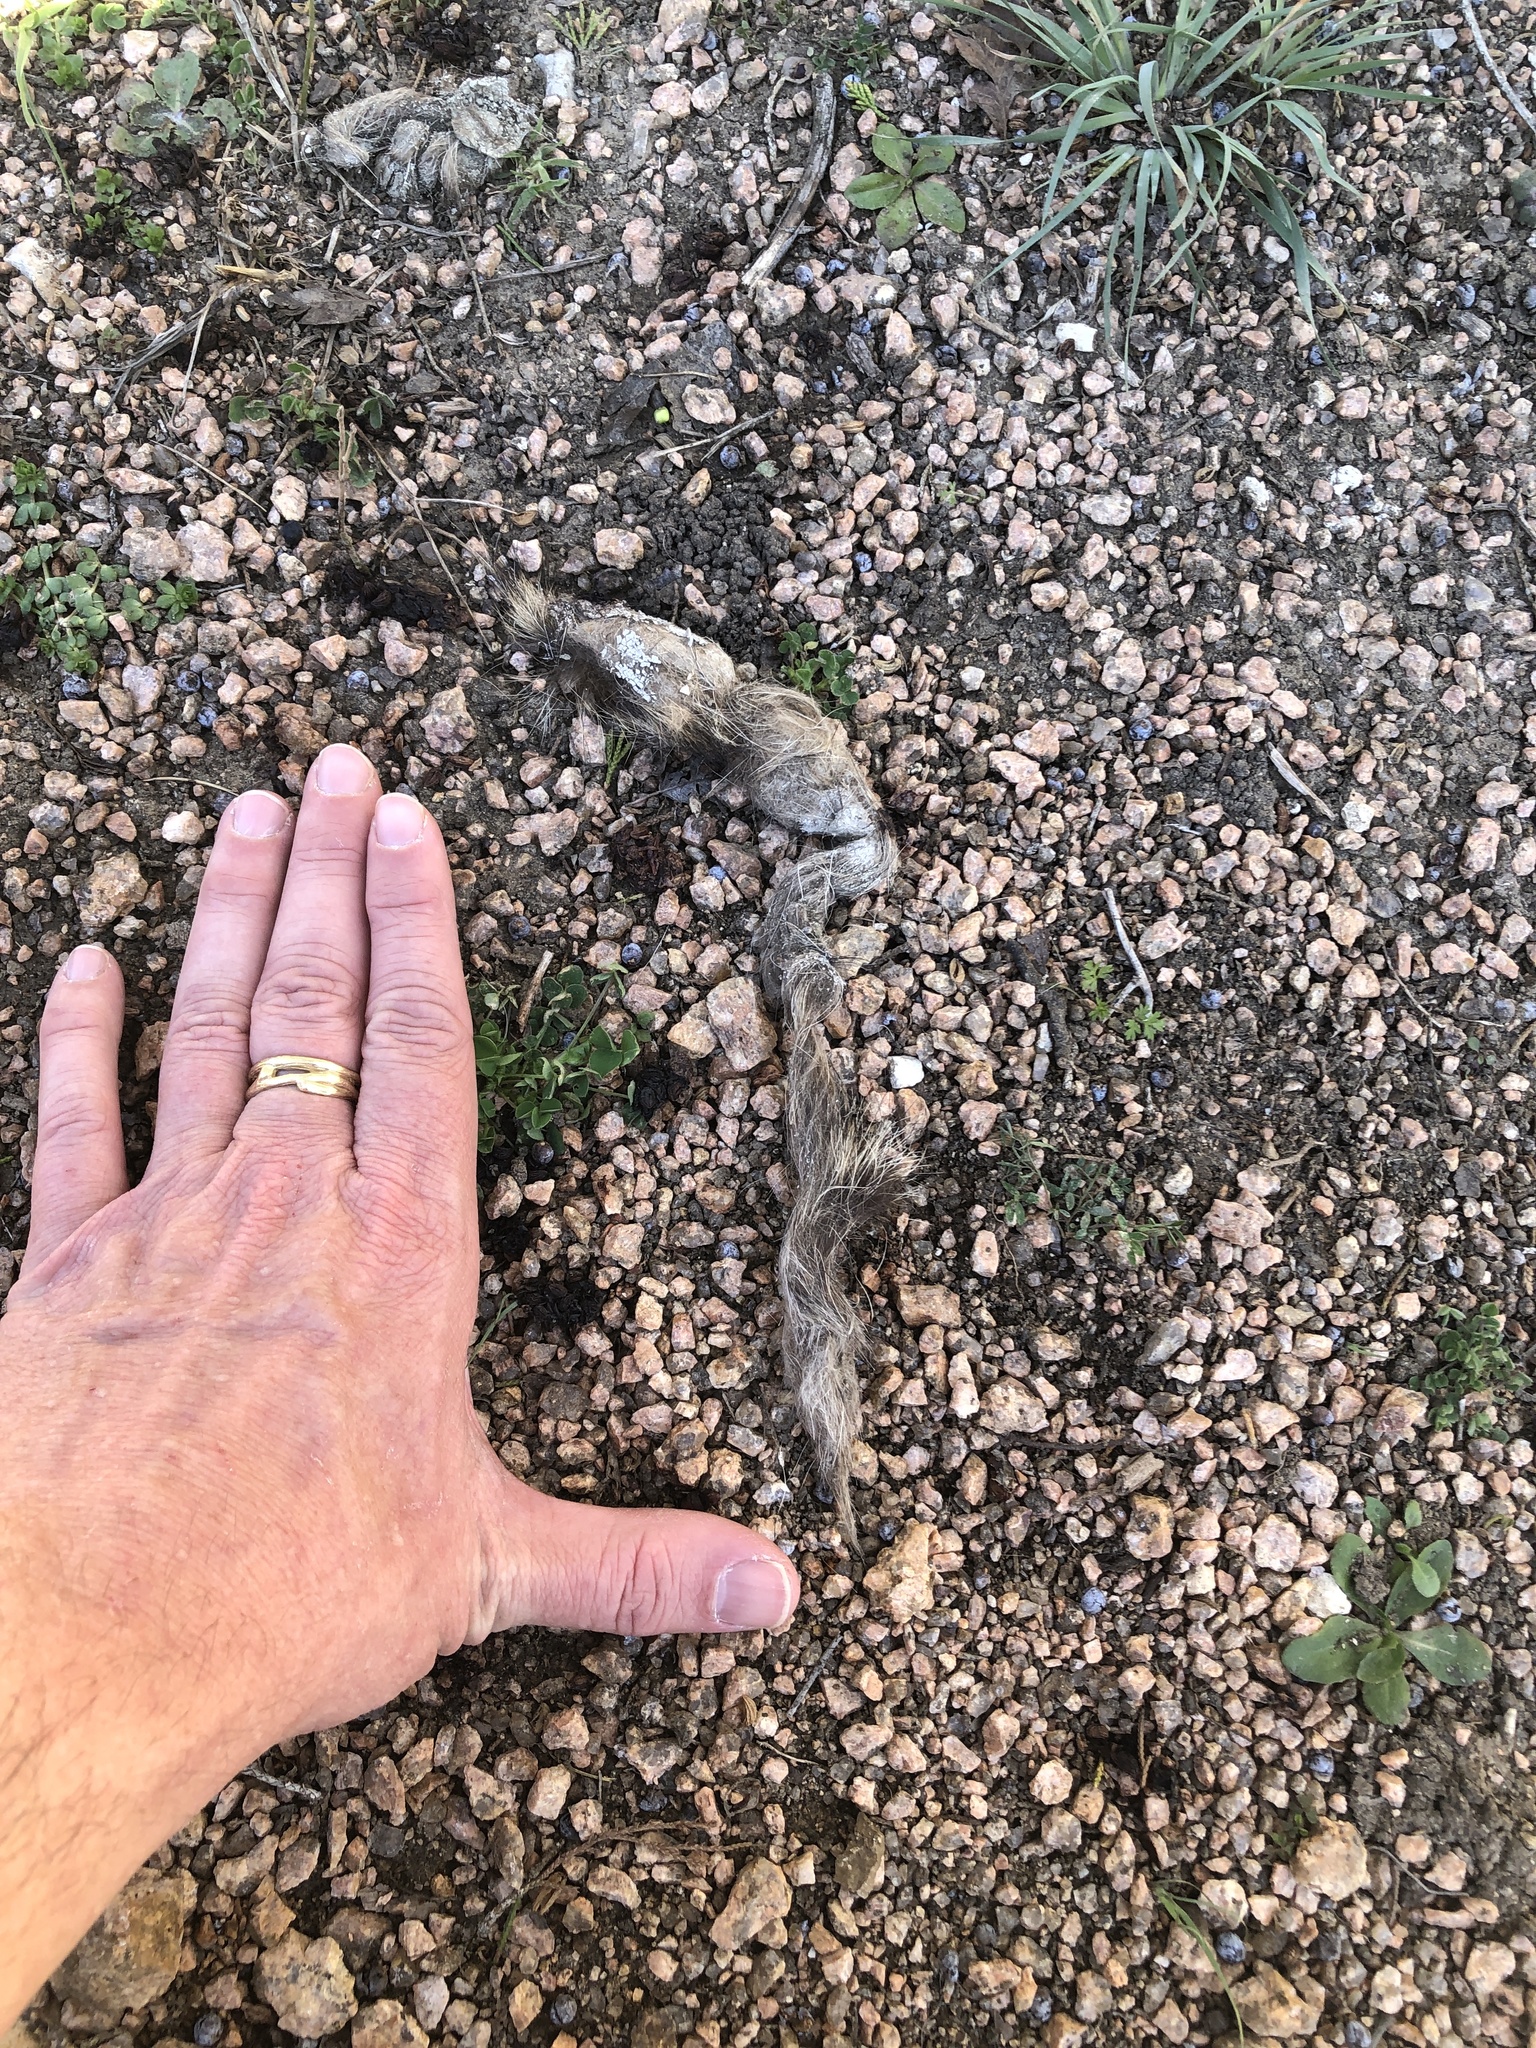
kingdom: Animalia
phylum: Chordata
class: Mammalia
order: Carnivora
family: Canidae
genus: Canis
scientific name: Canis latrans
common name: Coyote
